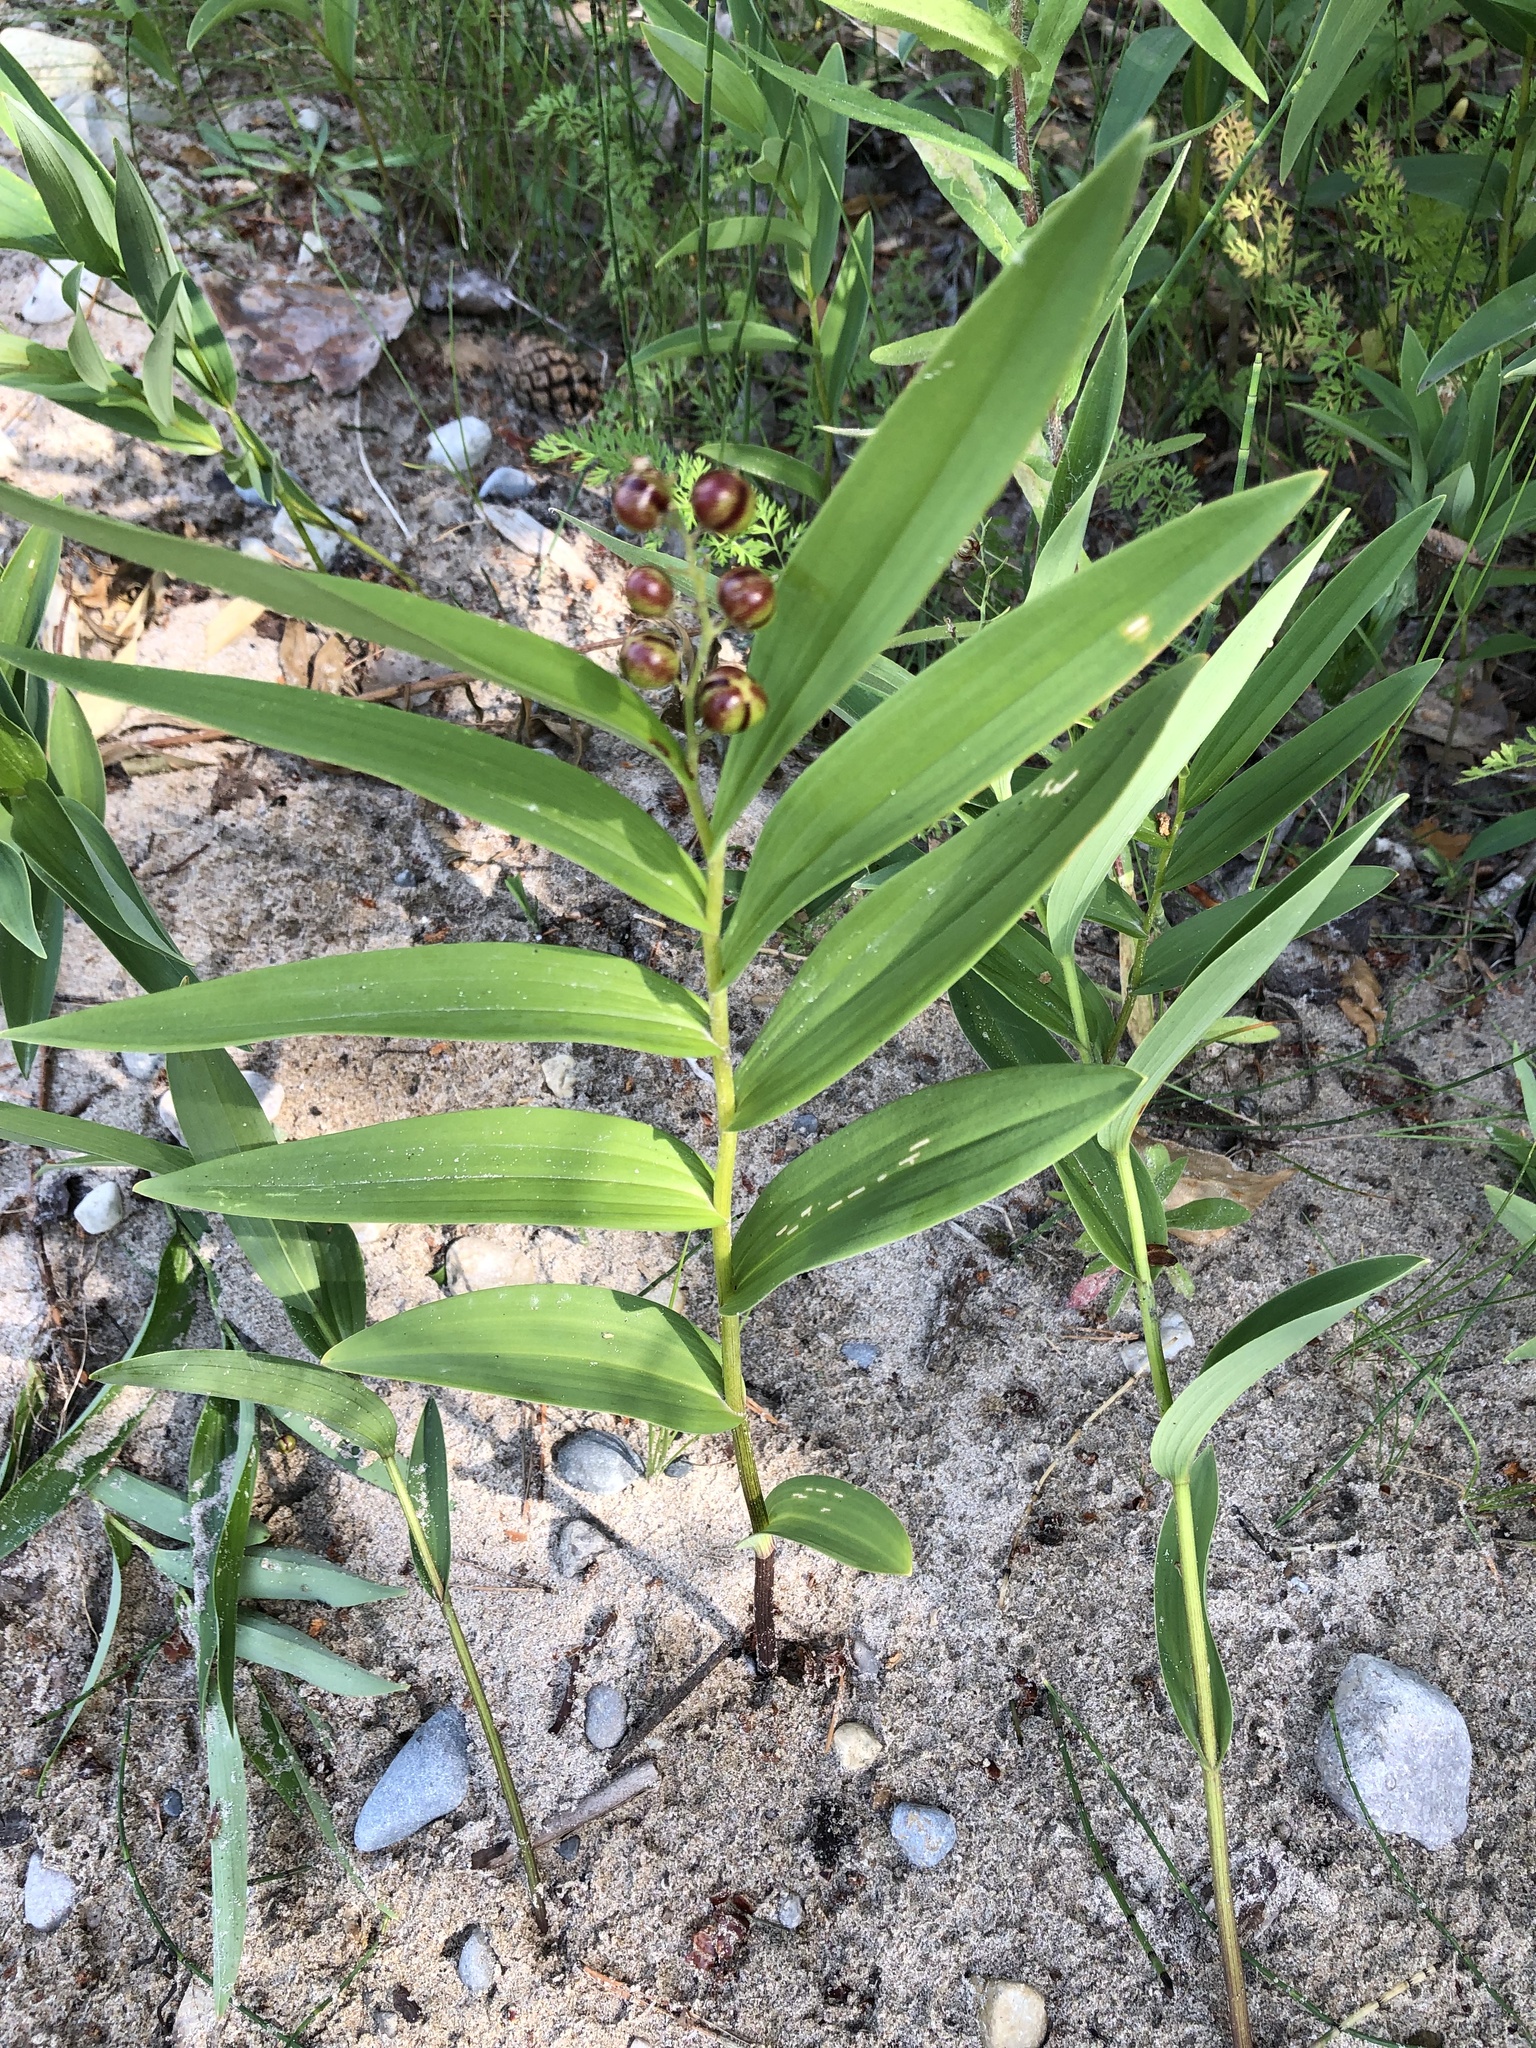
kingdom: Plantae
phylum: Tracheophyta
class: Liliopsida
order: Asparagales
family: Asparagaceae
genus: Maianthemum
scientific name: Maianthemum stellatum
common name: Little false solomon's seal
